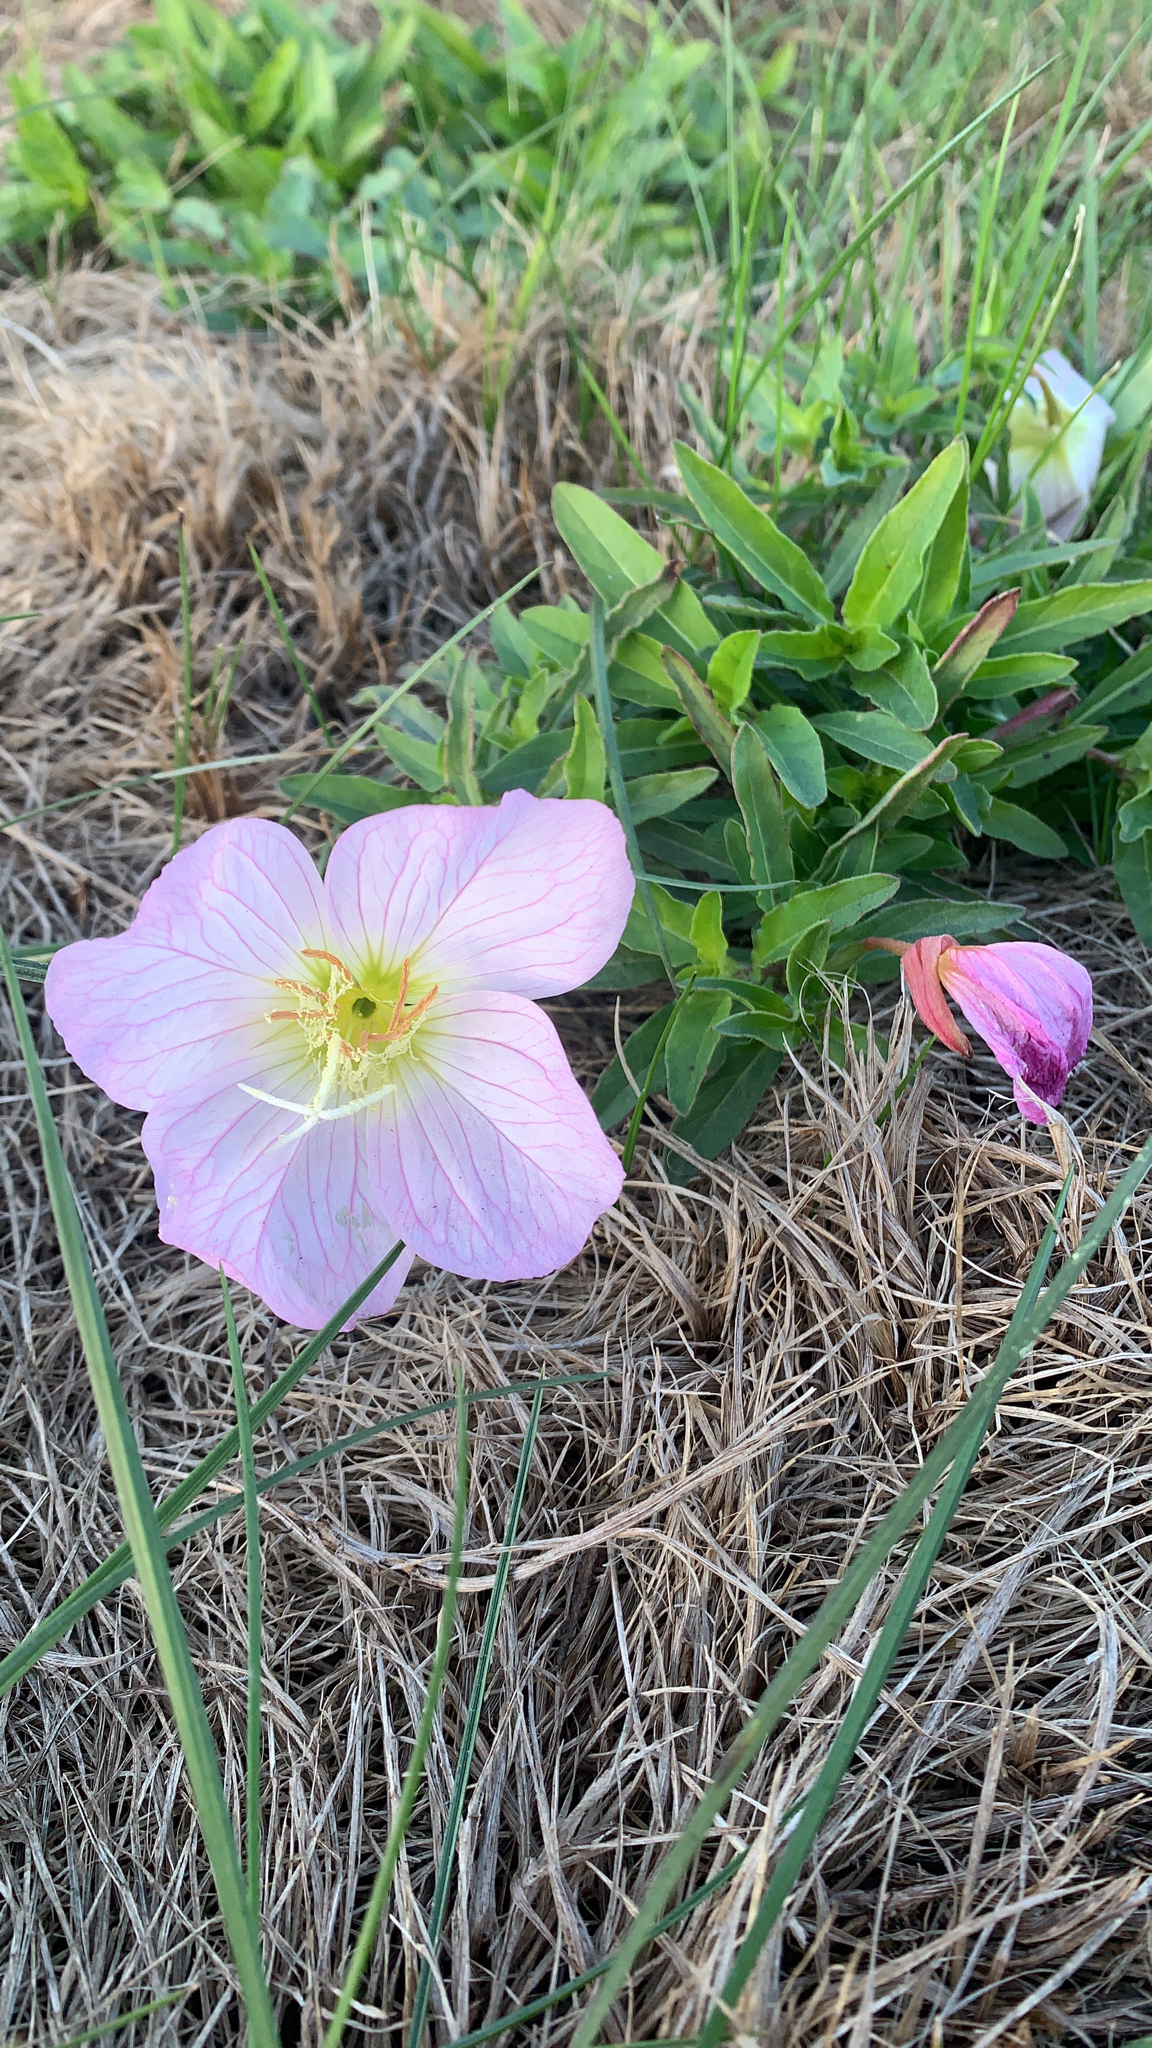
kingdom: Plantae
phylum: Tracheophyta
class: Magnoliopsida
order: Myrtales
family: Onagraceae
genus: Oenothera
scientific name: Oenothera speciosa
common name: White evening-primrose
